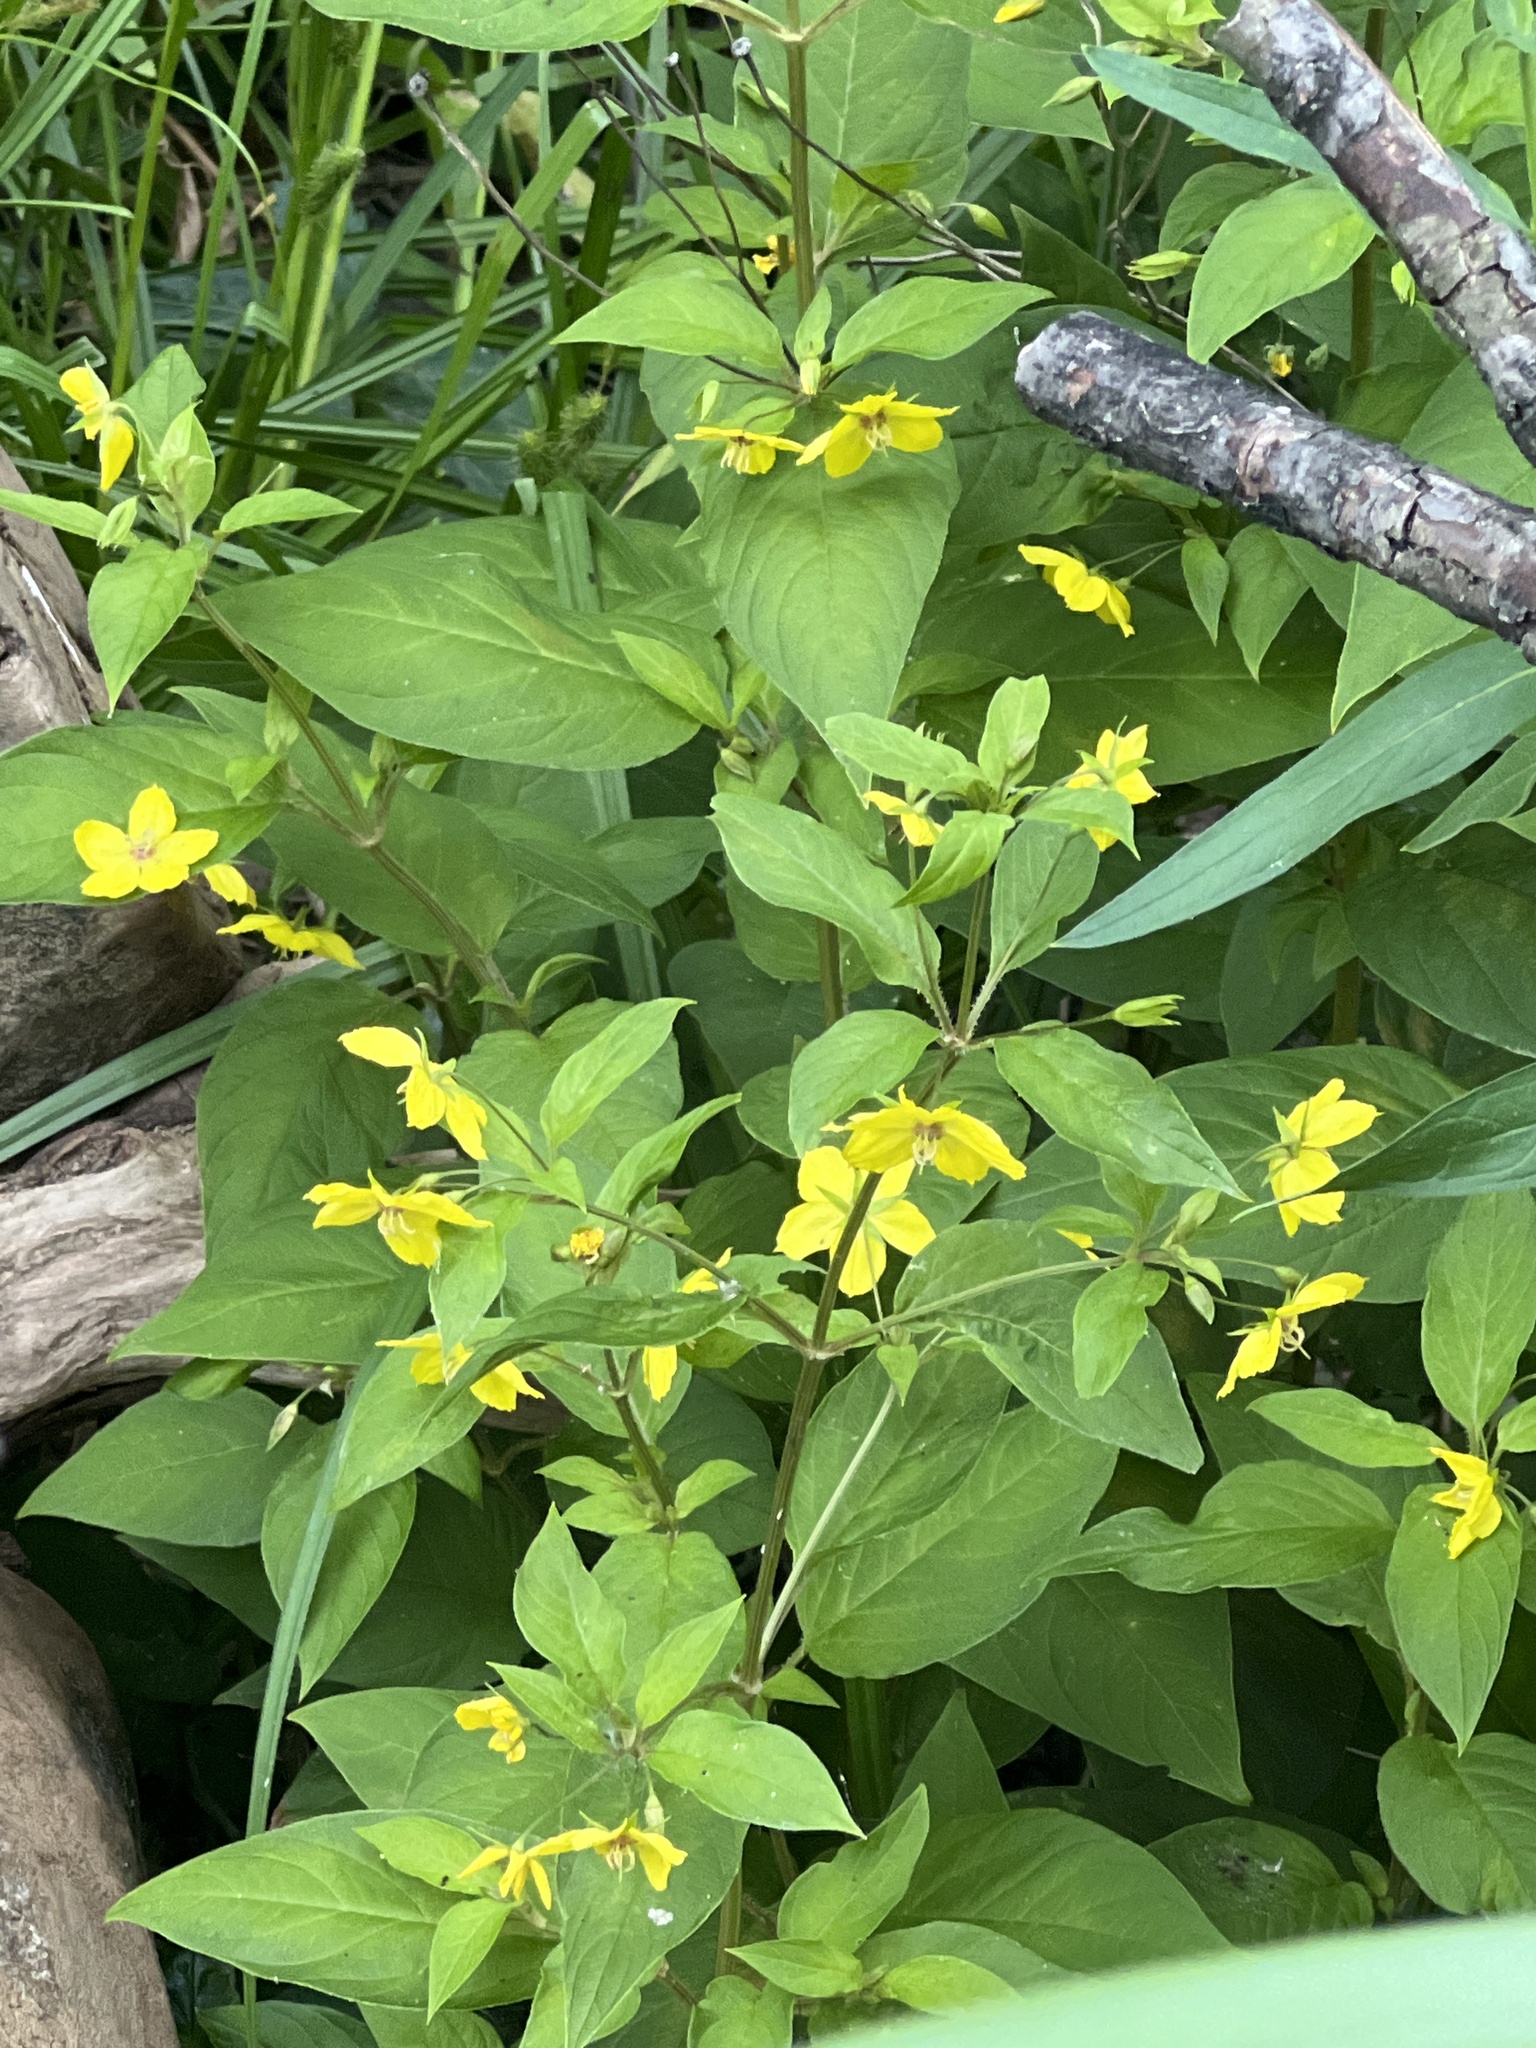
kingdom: Plantae
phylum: Tracheophyta
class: Magnoliopsida
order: Ericales
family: Primulaceae
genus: Lysimachia
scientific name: Lysimachia ciliata
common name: Fringed loosestrife
